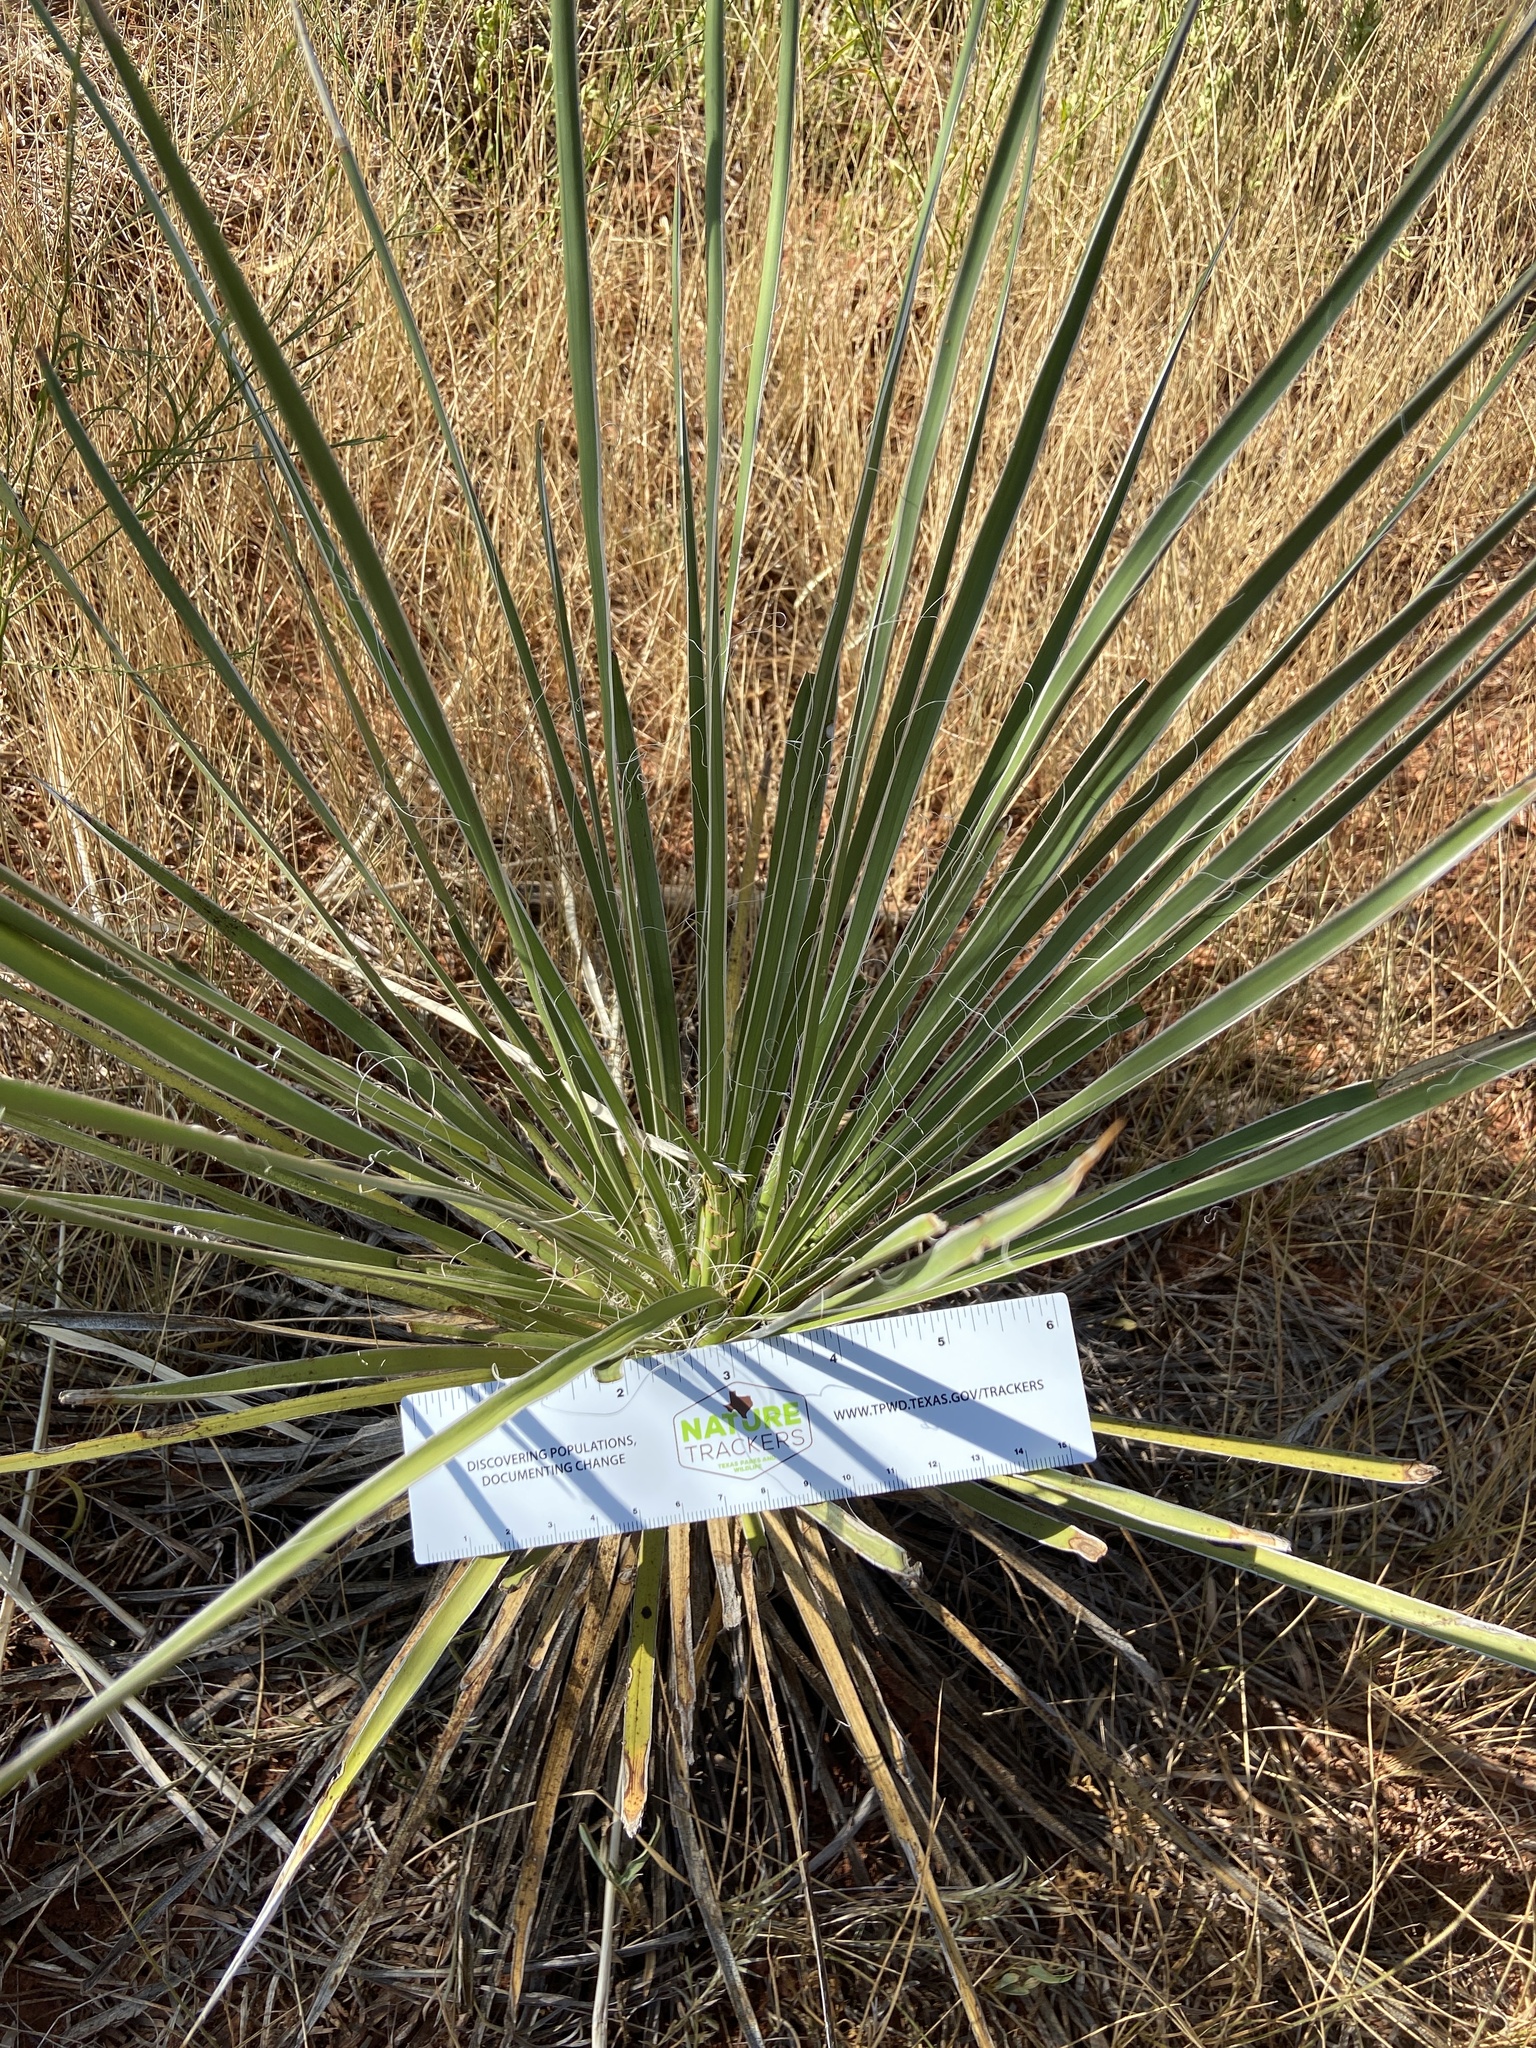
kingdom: Plantae
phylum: Tracheophyta
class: Liliopsida
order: Asparagales
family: Asparagaceae
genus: Yucca
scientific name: Yucca constricta
